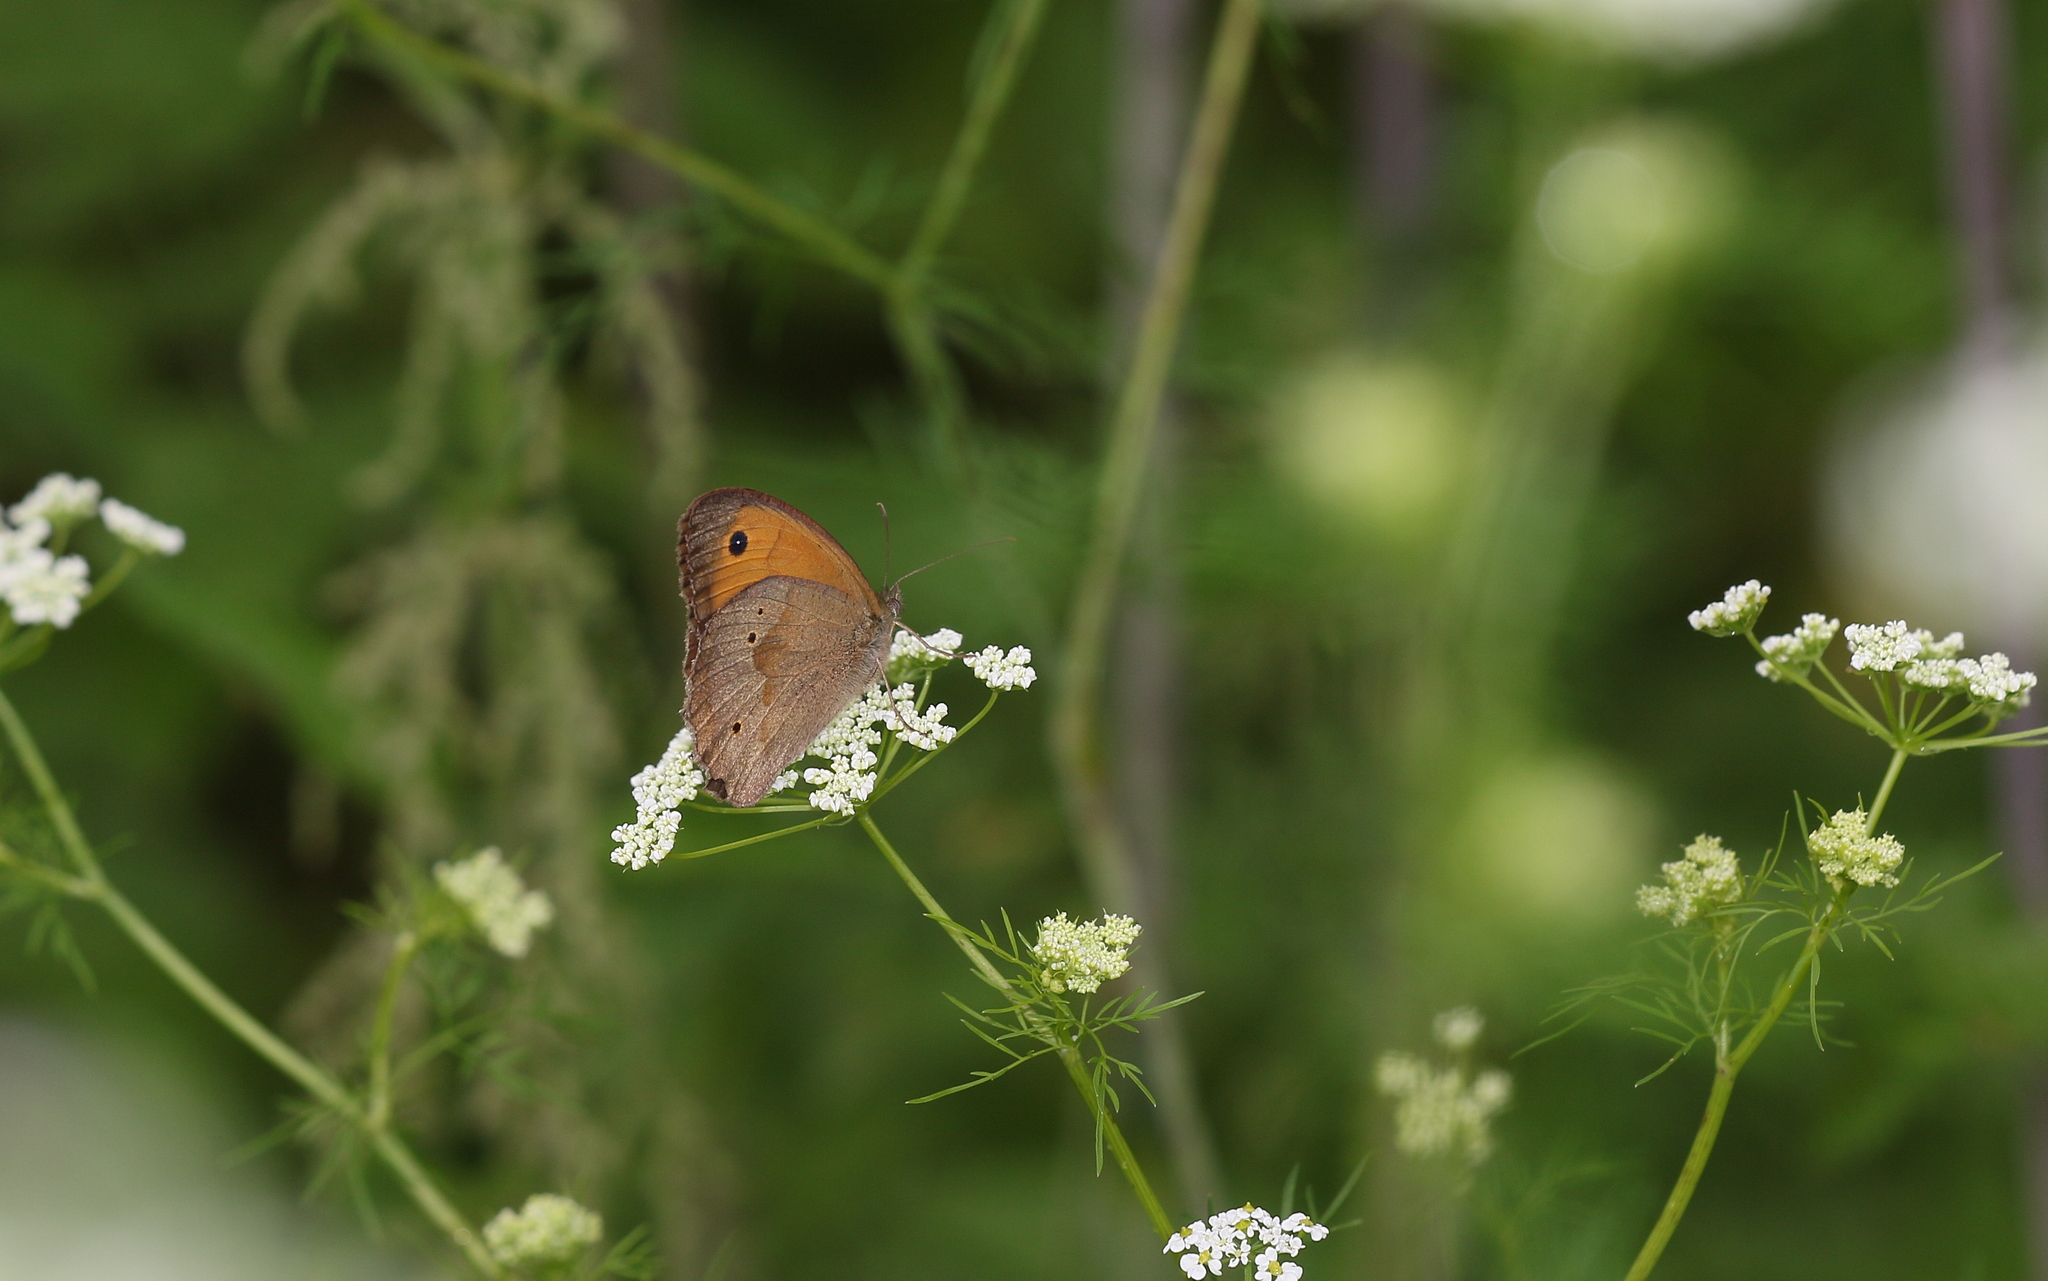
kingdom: Animalia
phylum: Arthropoda
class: Insecta
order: Lepidoptera
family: Nymphalidae
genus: Maniola
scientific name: Maniola jurtina
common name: Meadow brown
